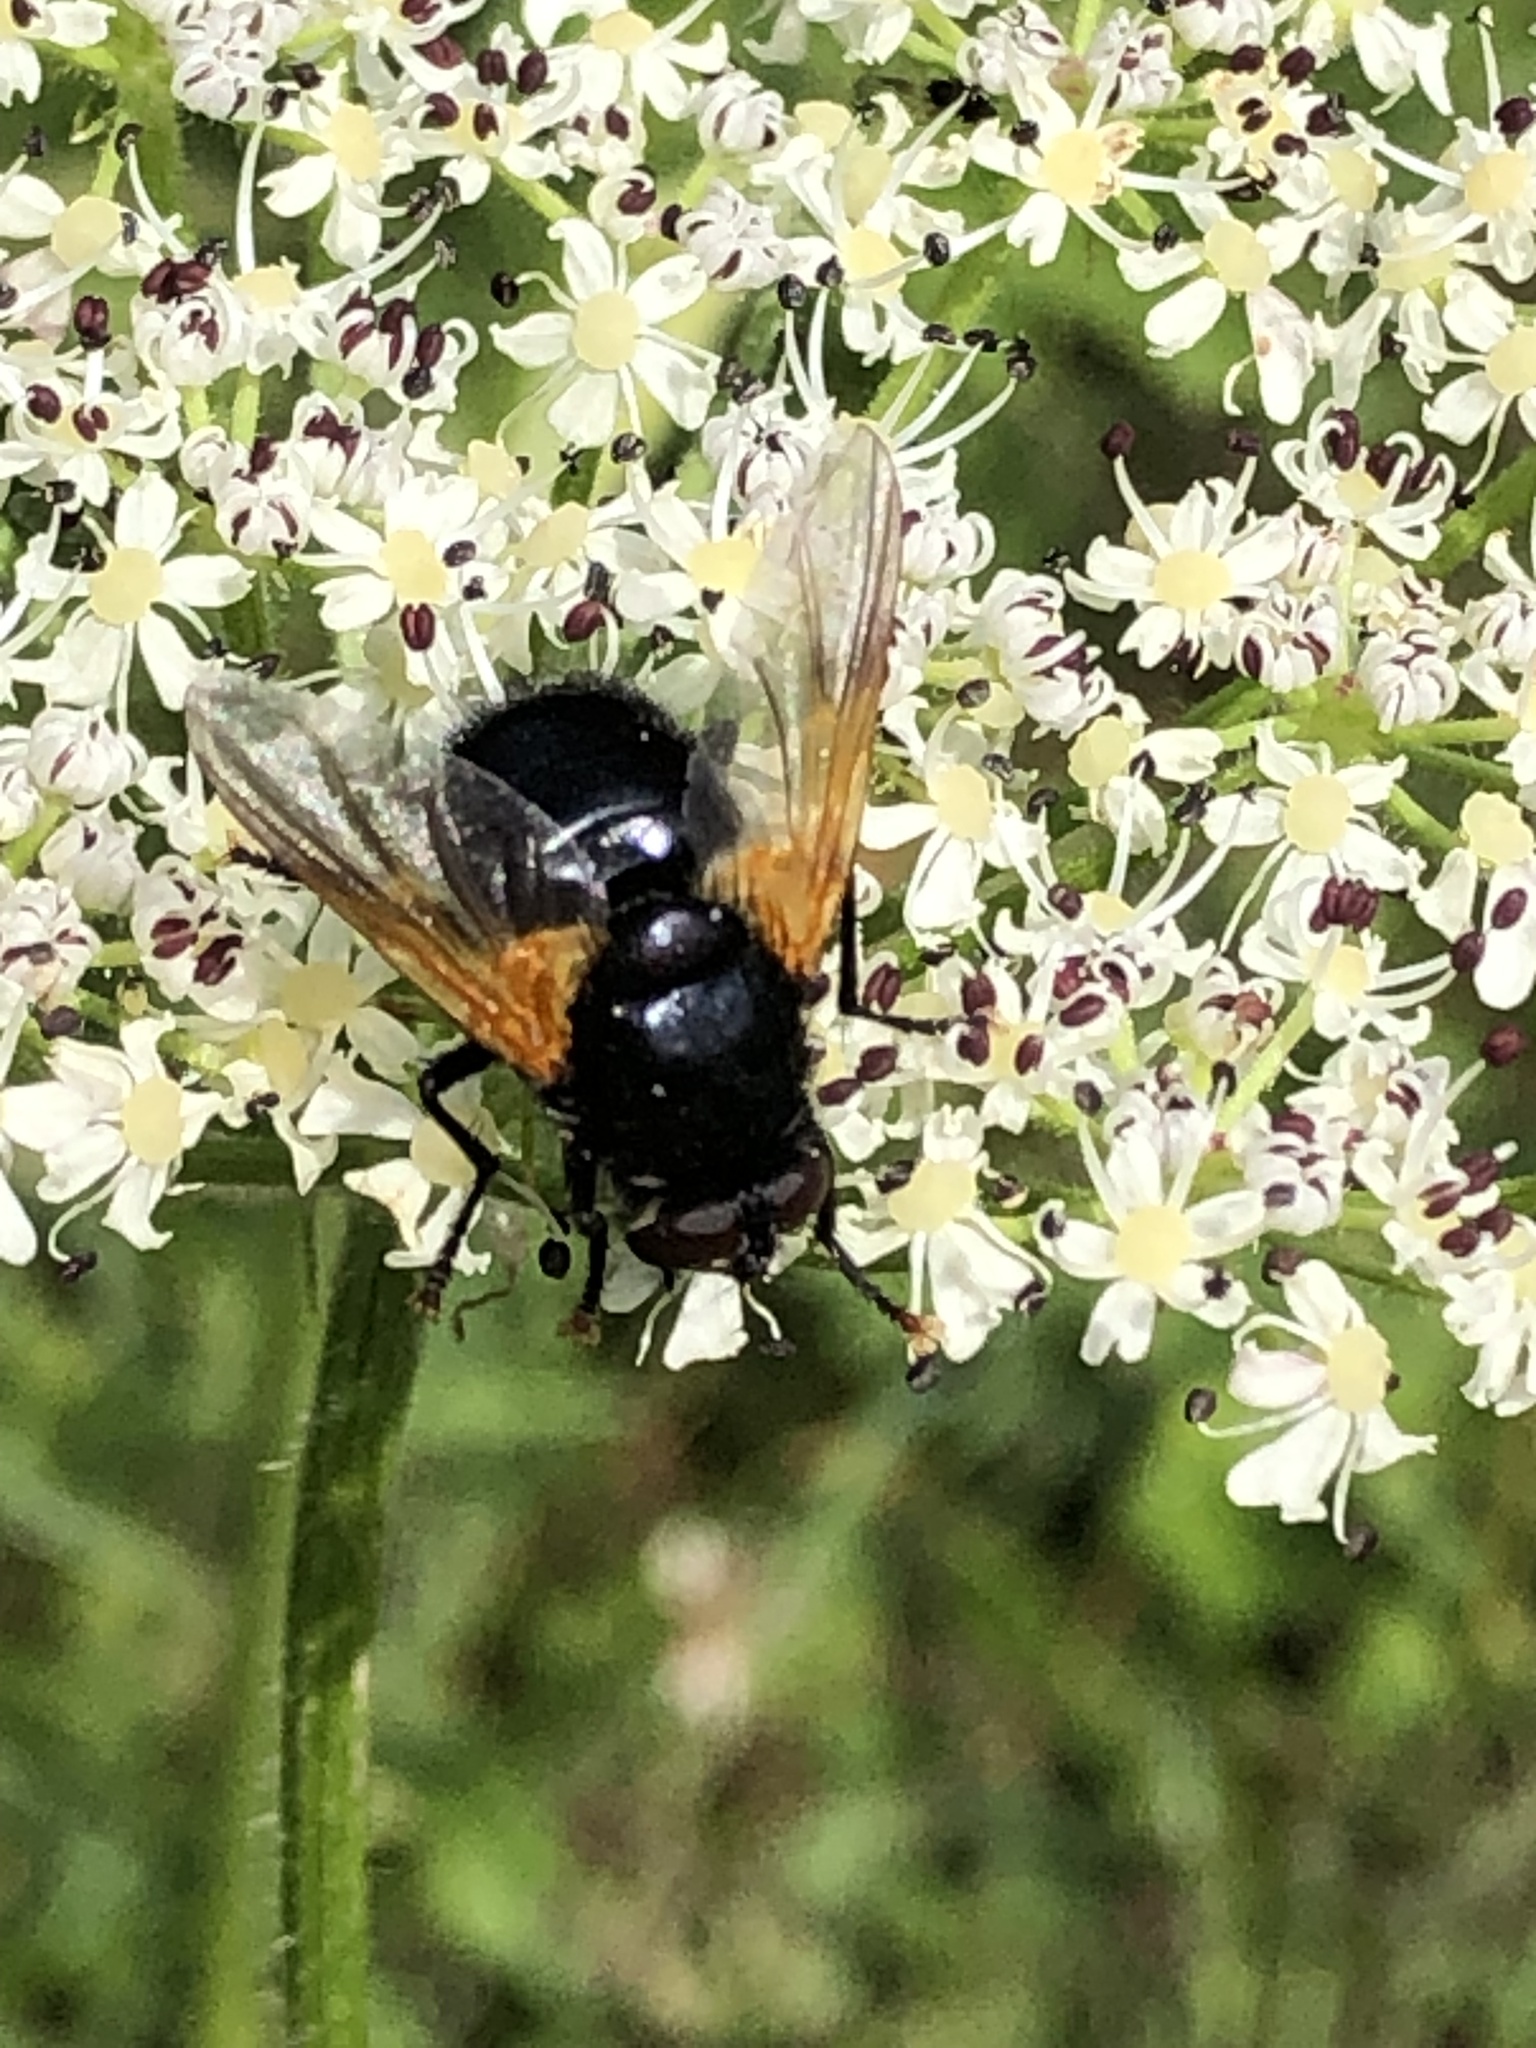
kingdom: Animalia
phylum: Arthropoda
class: Insecta
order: Diptera
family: Muscidae
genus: Mesembrina
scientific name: Mesembrina meridiana
